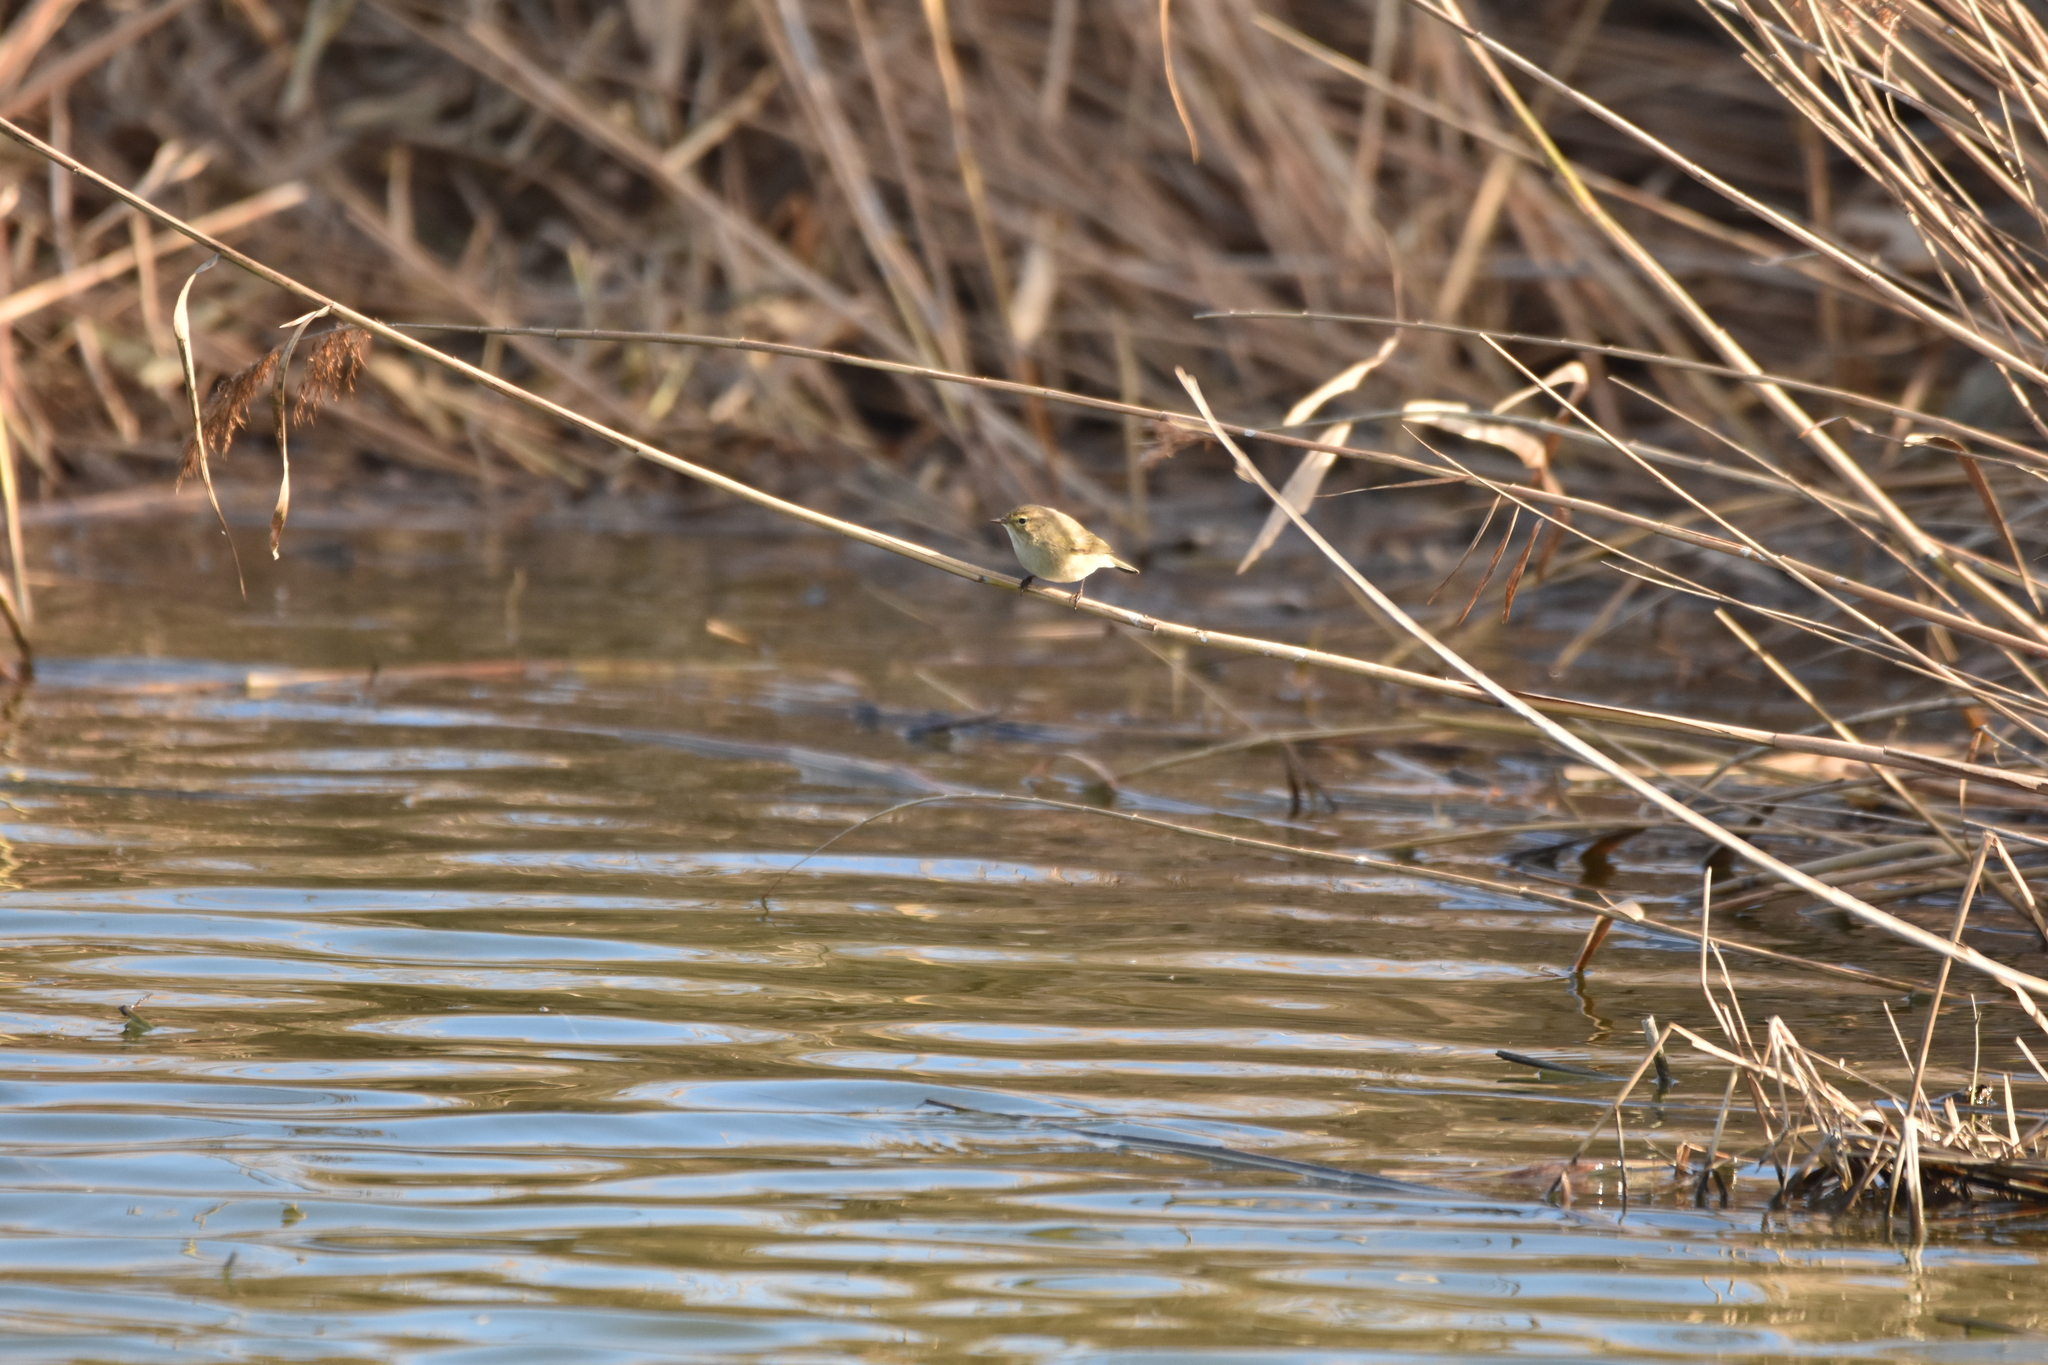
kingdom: Animalia
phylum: Chordata
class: Aves
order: Passeriformes
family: Phylloscopidae
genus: Phylloscopus
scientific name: Phylloscopus collybita
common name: Common chiffchaff
